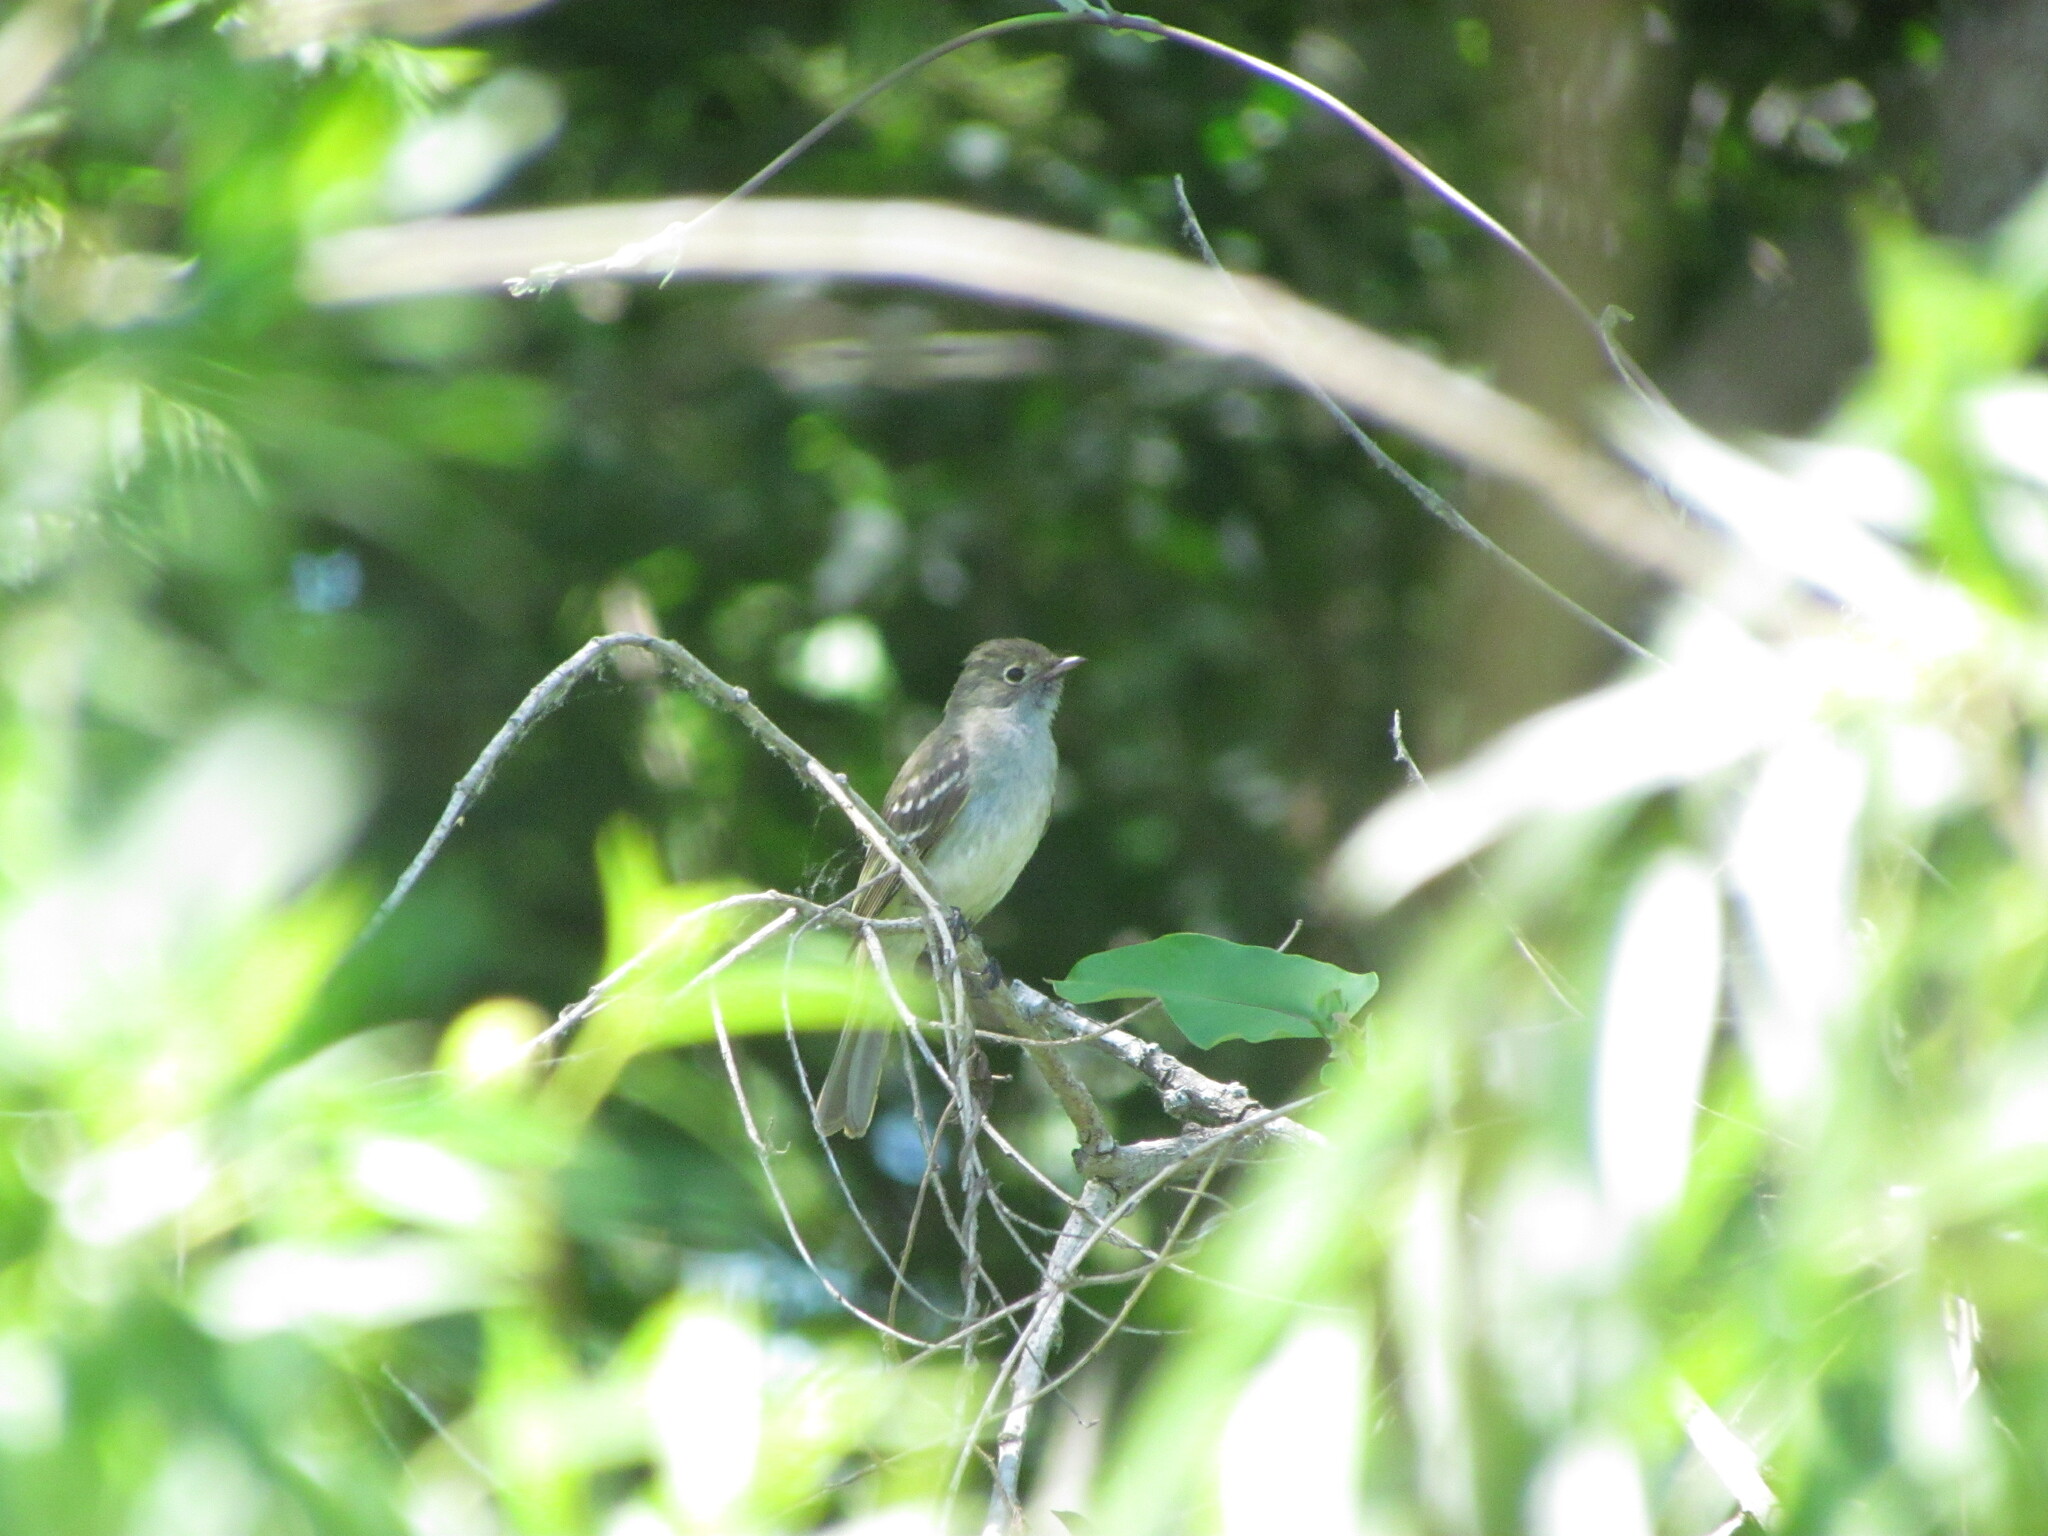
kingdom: Animalia
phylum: Chordata
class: Aves
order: Passeriformes
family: Tyrannidae
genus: Elaenia
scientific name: Elaenia parvirostris
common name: Small-billed elaenia
